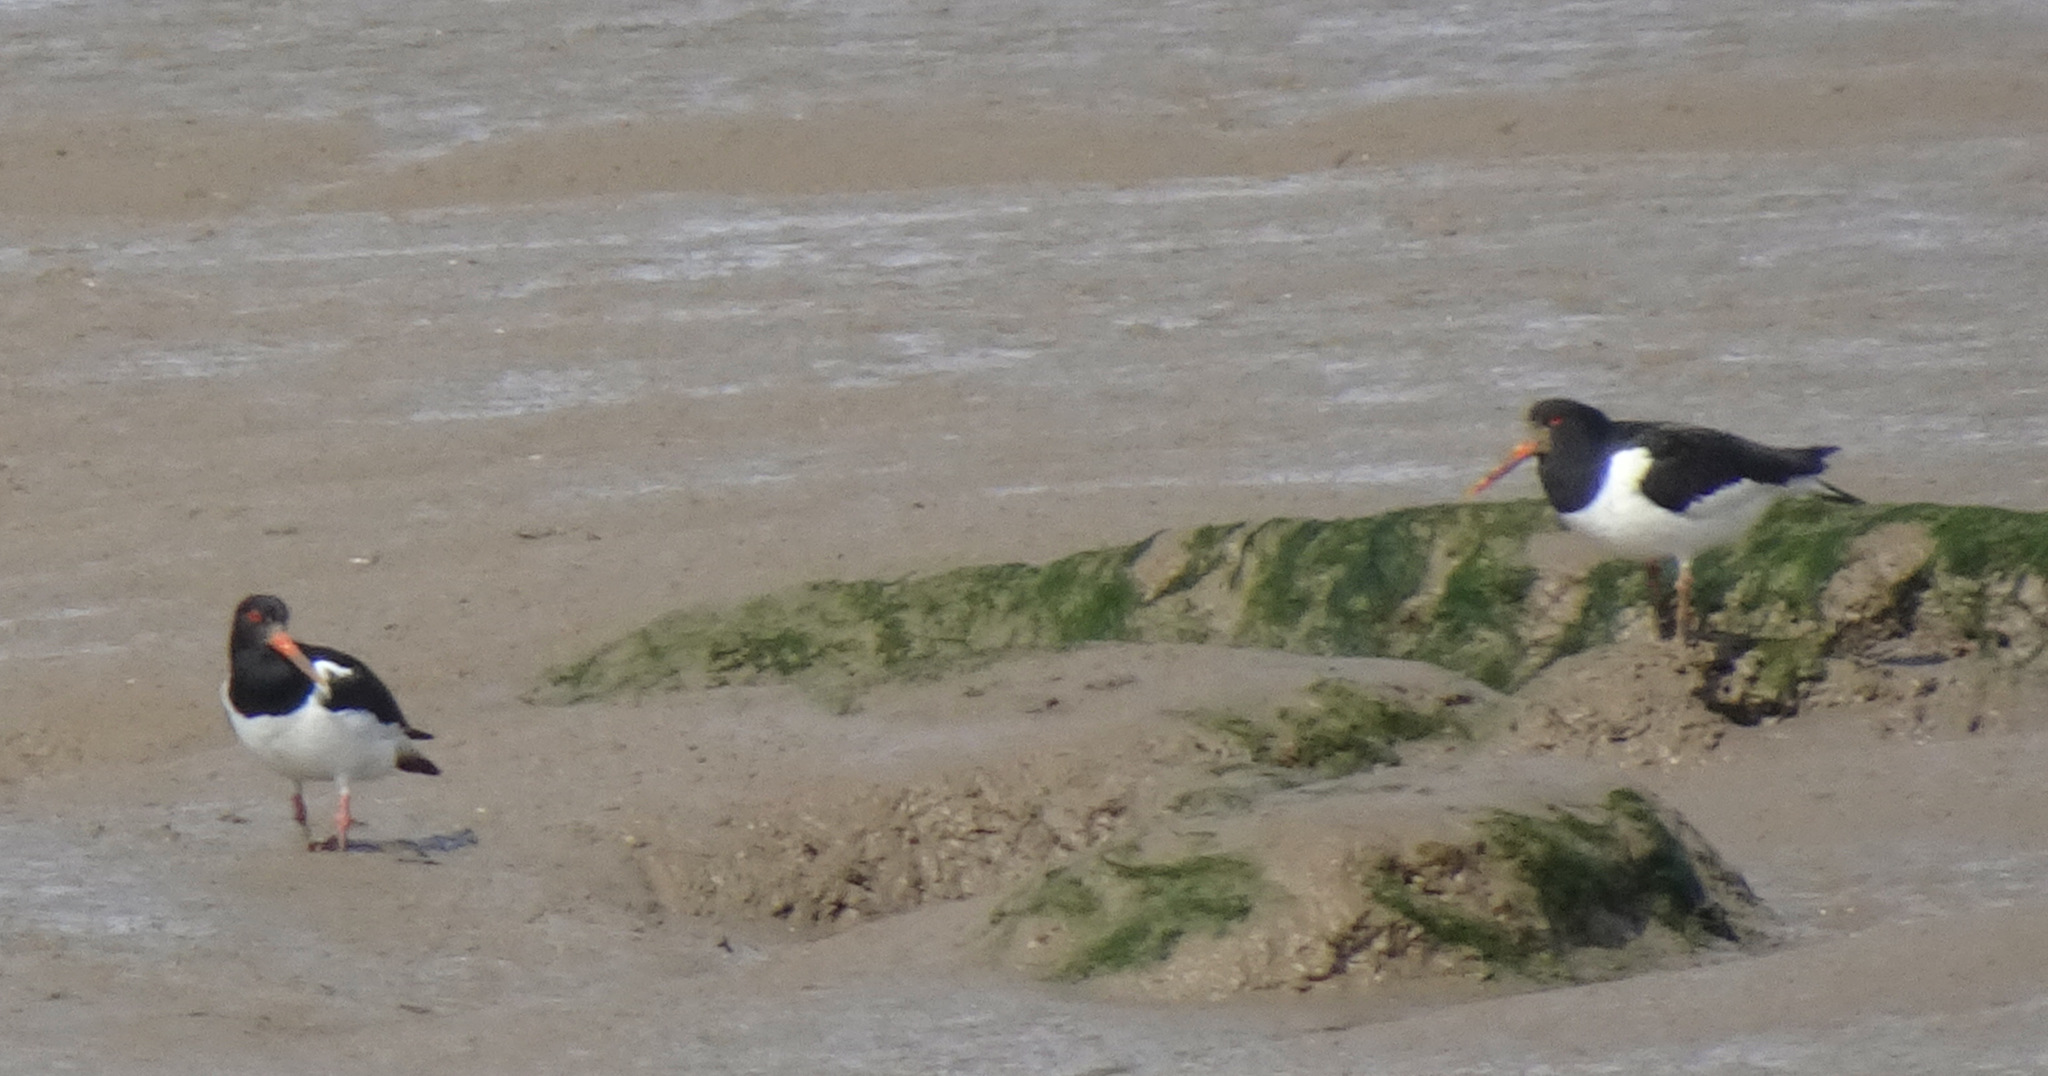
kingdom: Animalia
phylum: Chordata
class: Aves
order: Charadriiformes
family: Haematopodidae
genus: Haematopus
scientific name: Haematopus ostralegus
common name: Eurasian oystercatcher
